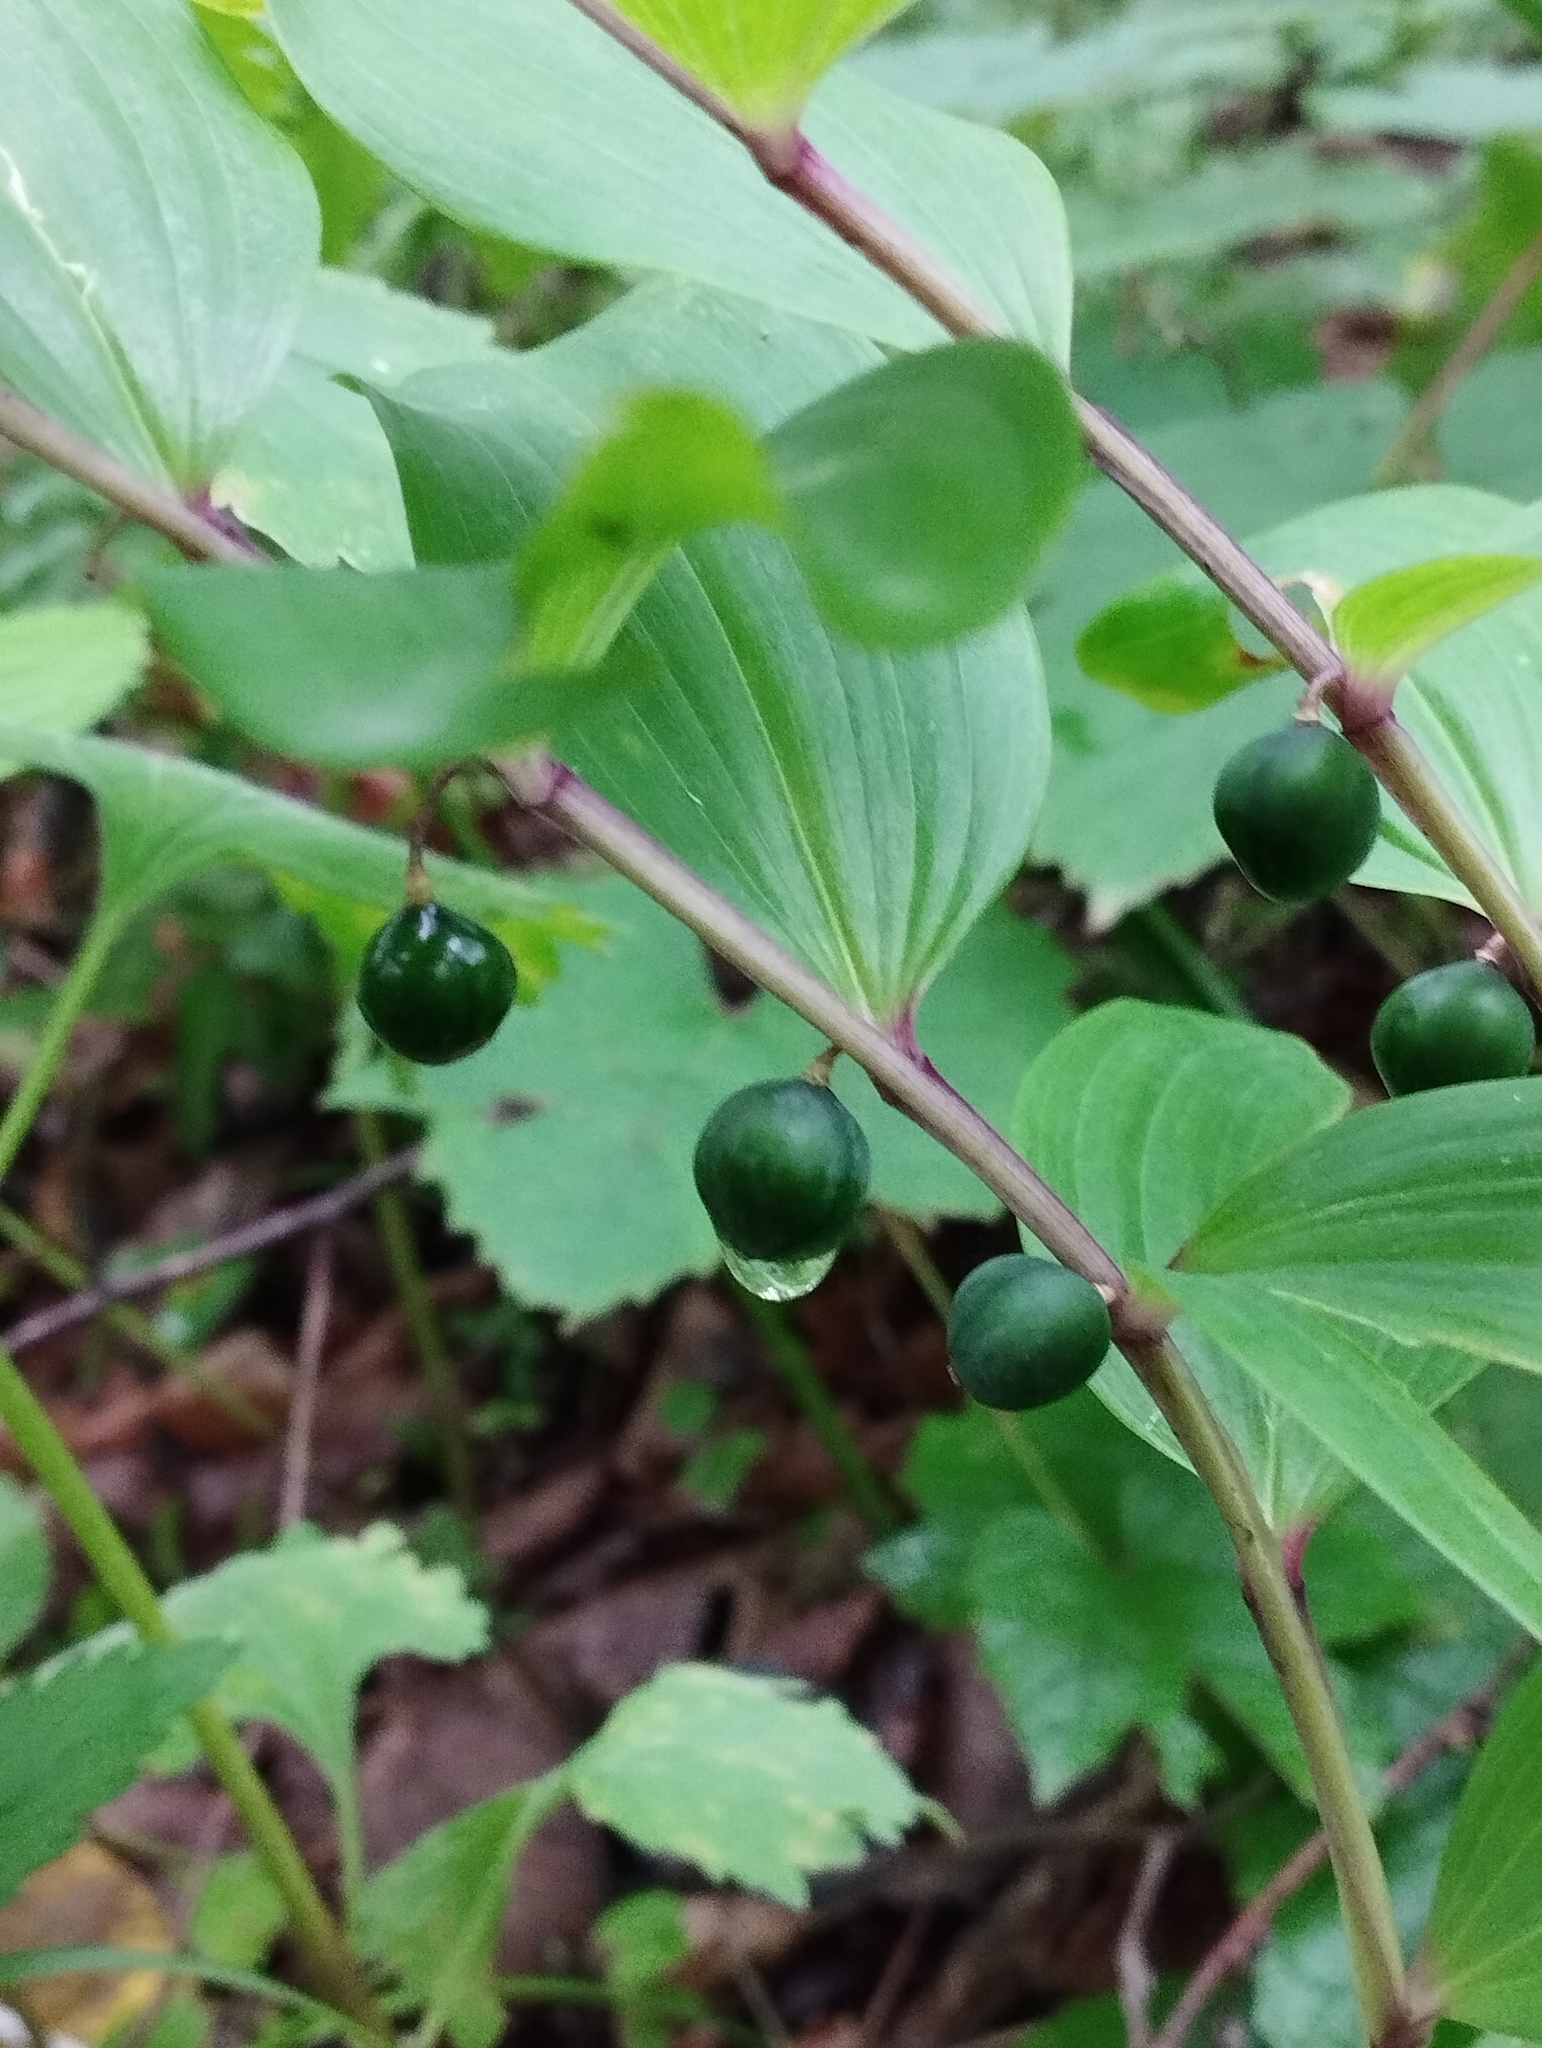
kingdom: Plantae
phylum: Tracheophyta
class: Liliopsida
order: Asparagales
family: Asparagaceae
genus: Polygonatum
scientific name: Polygonatum odoratum
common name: Angular solomon's-seal
